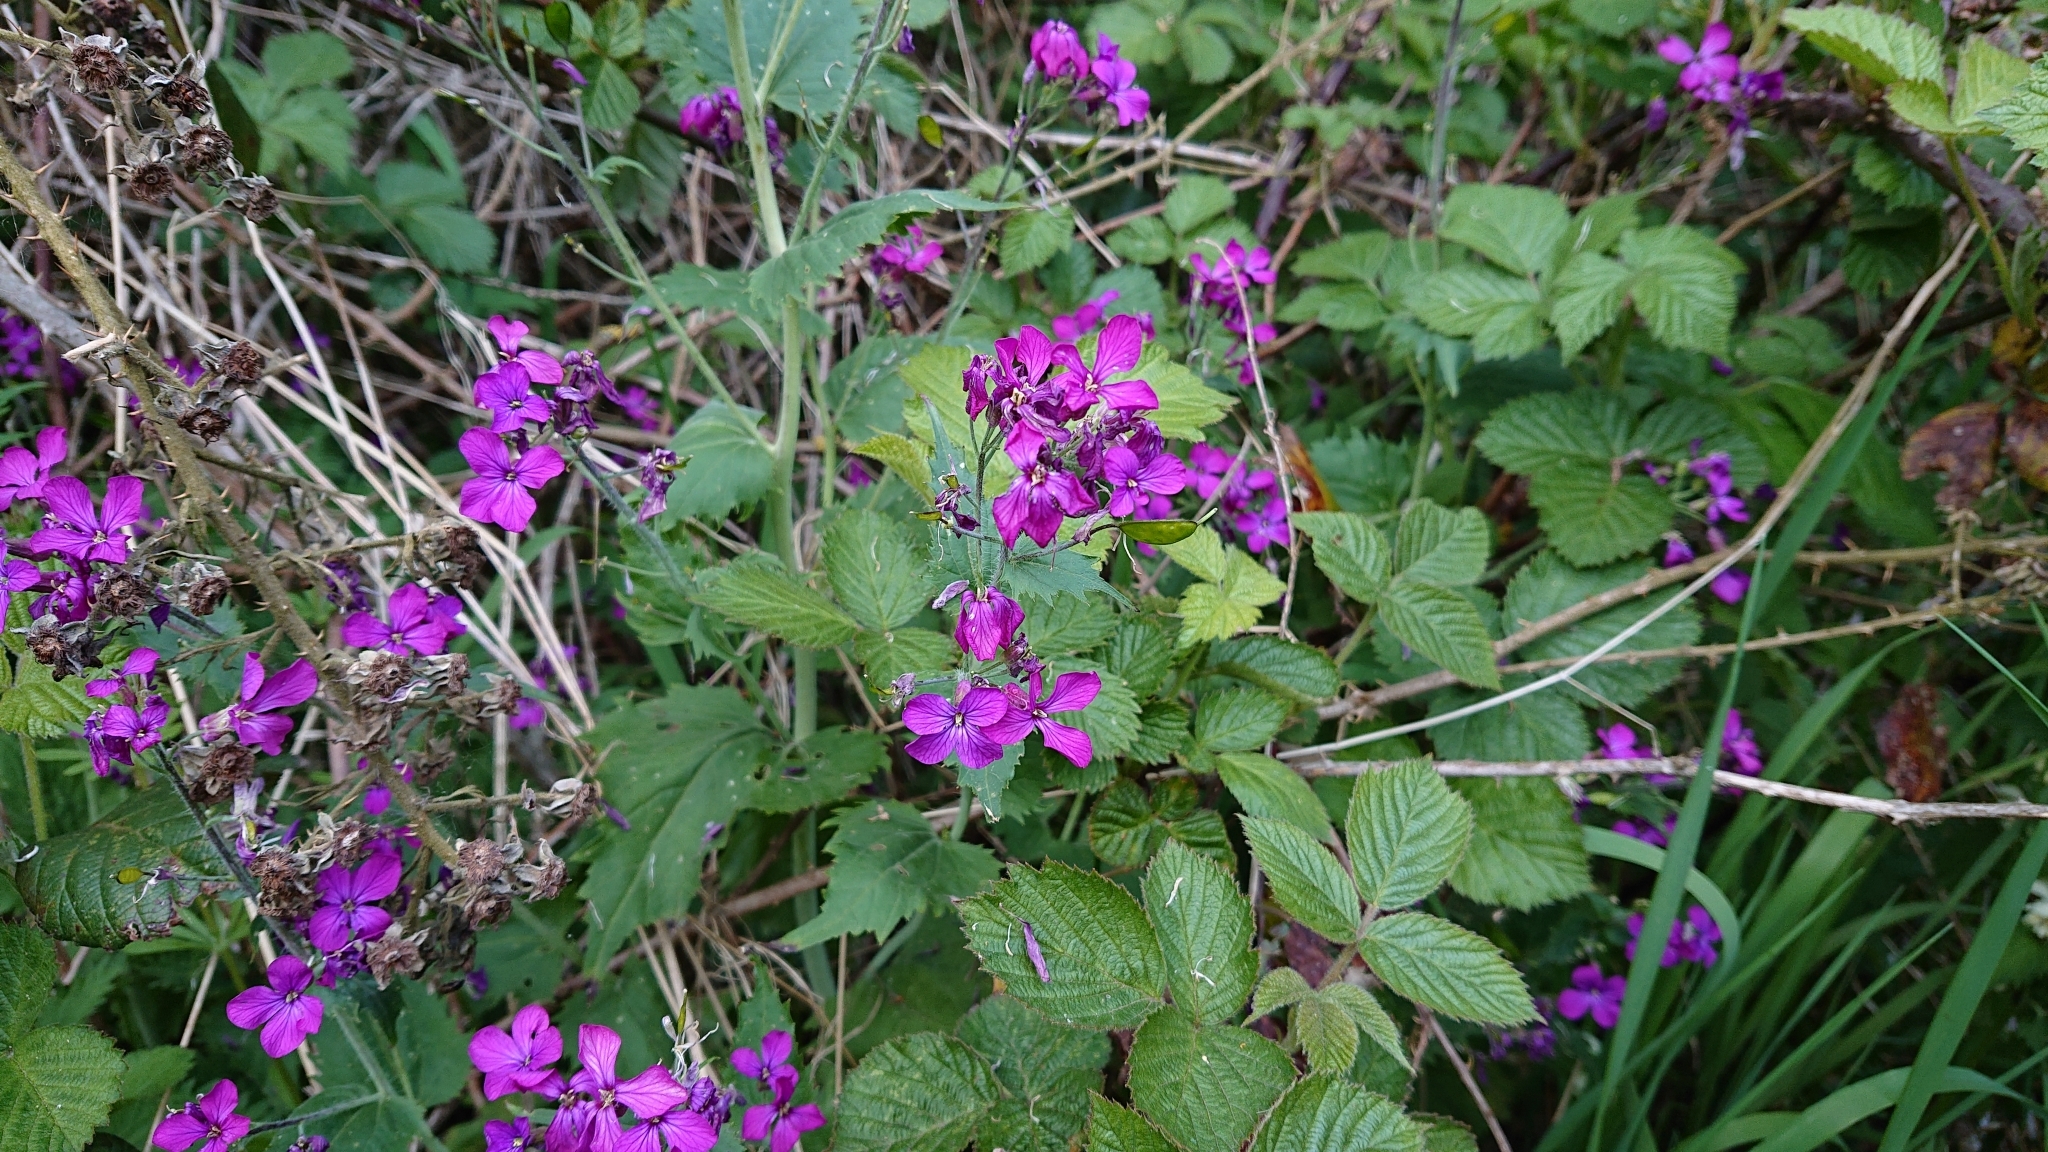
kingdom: Plantae
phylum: Tracheophyta
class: Magnoliopsida
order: Brassicales
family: Brassicaceae
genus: Lunaria
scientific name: Lunaria annua
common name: Honesty
